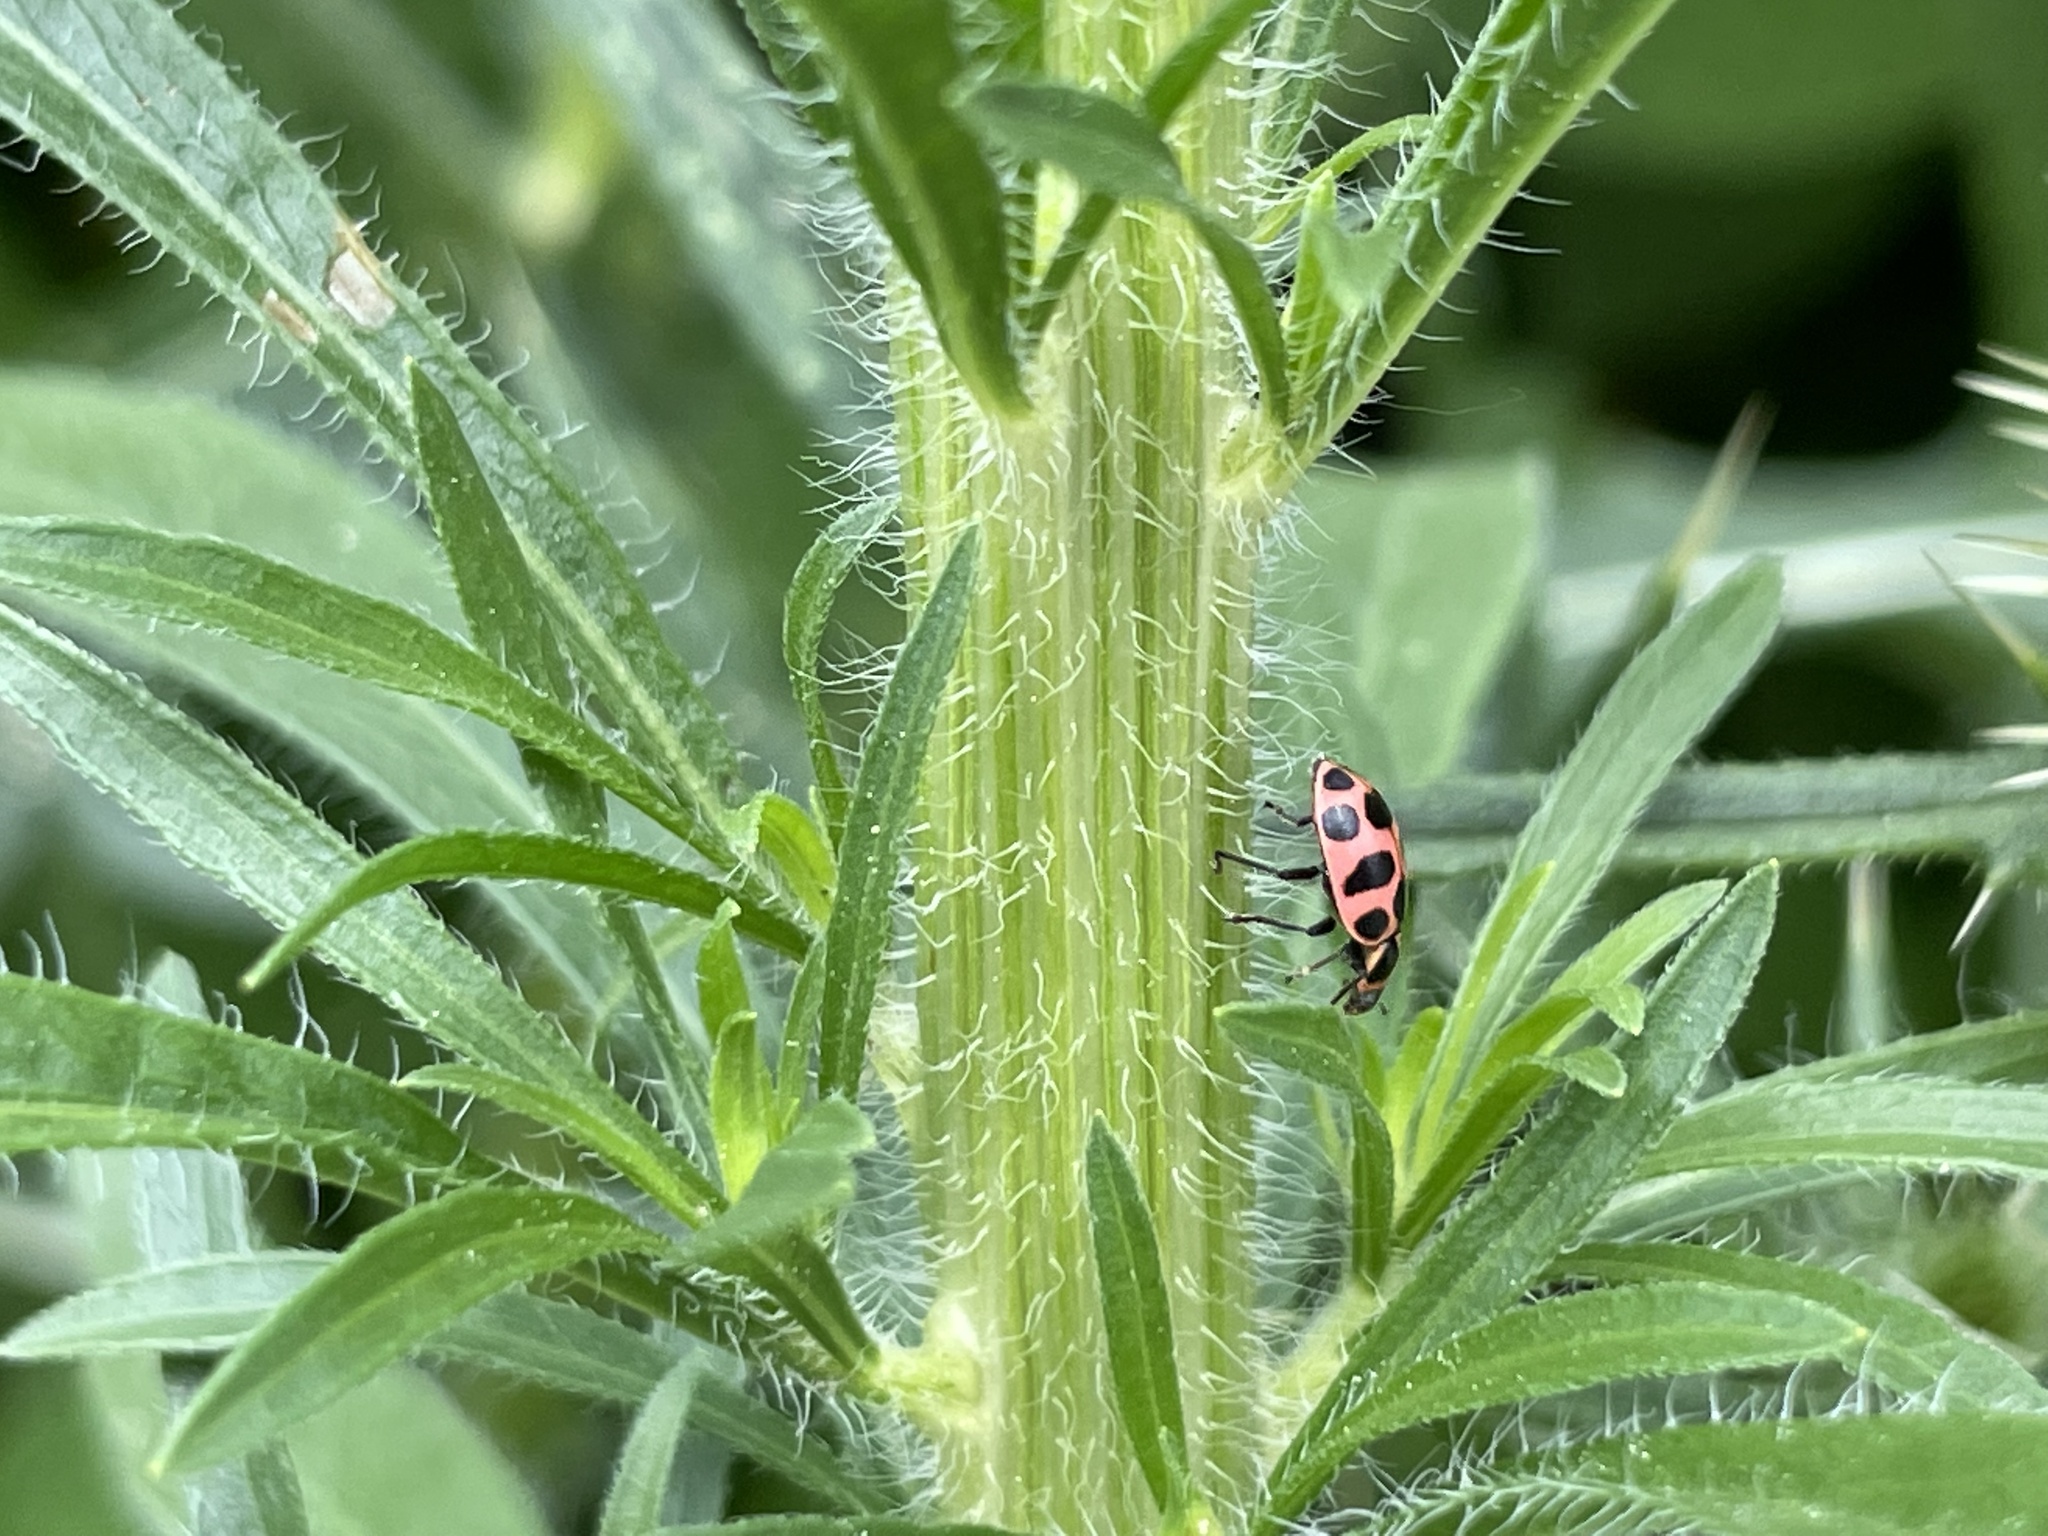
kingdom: Animalia
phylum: Arthropoda
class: Insecta
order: Coleoptera
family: Coccinellidae
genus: Coleomegilla
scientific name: Coleomegilla maculata
